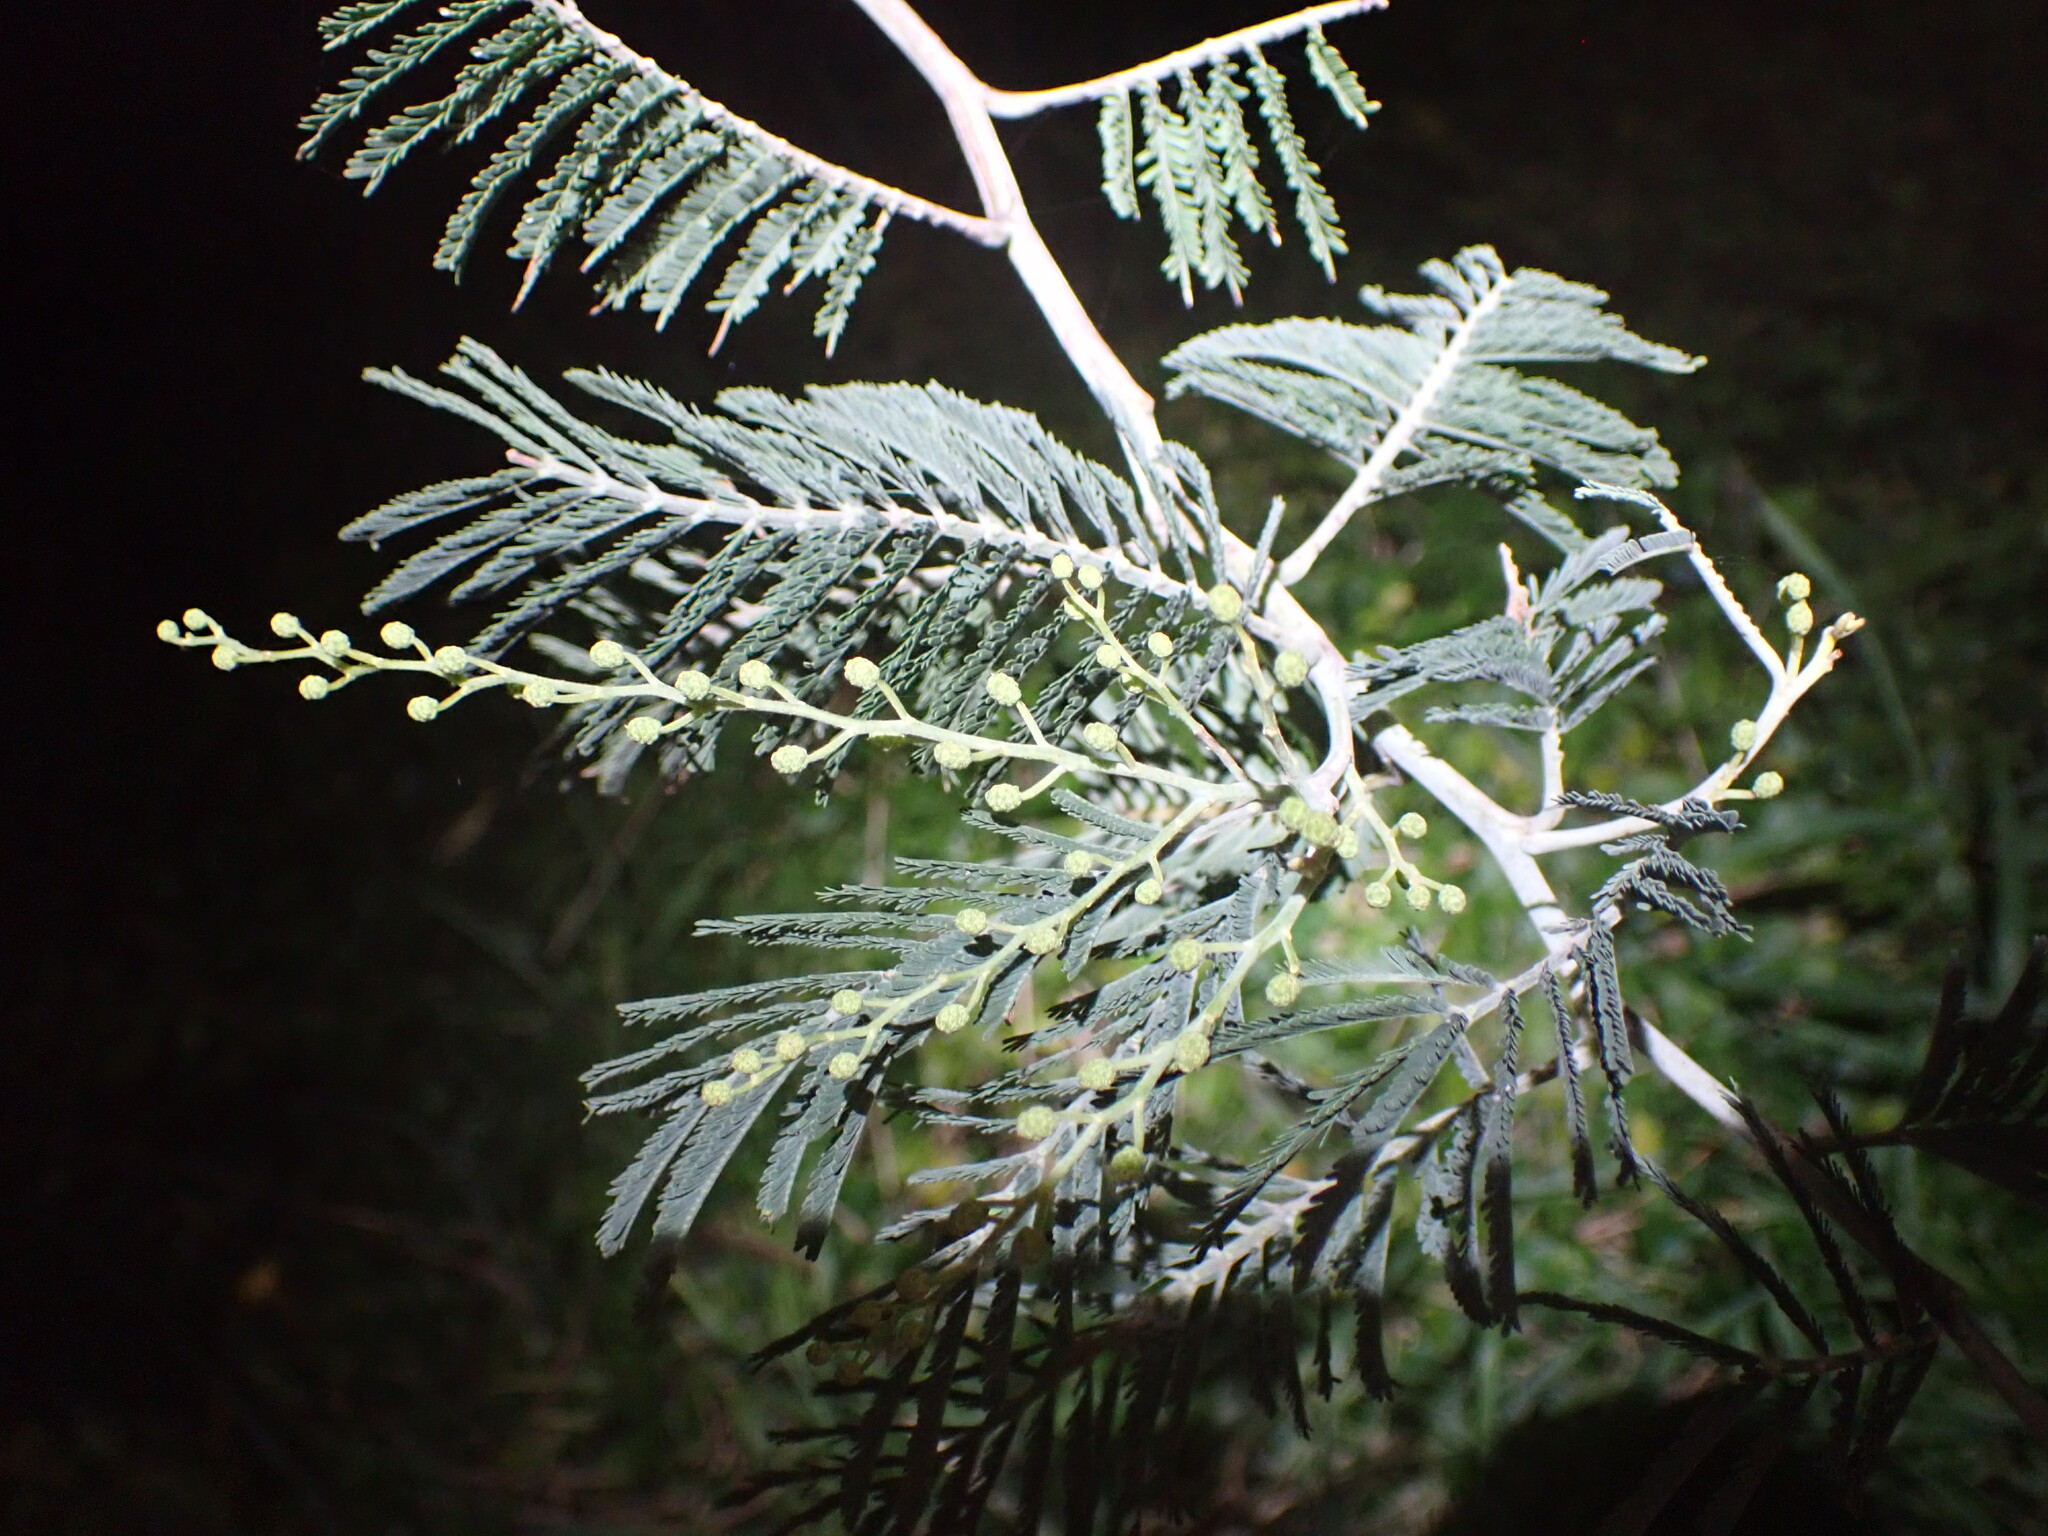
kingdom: Plantae
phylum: Tracheophyta
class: Magnoliopsida
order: Fabales
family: Fabaceae
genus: Acacia
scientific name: Acacia dealbata
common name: Silver wattle
